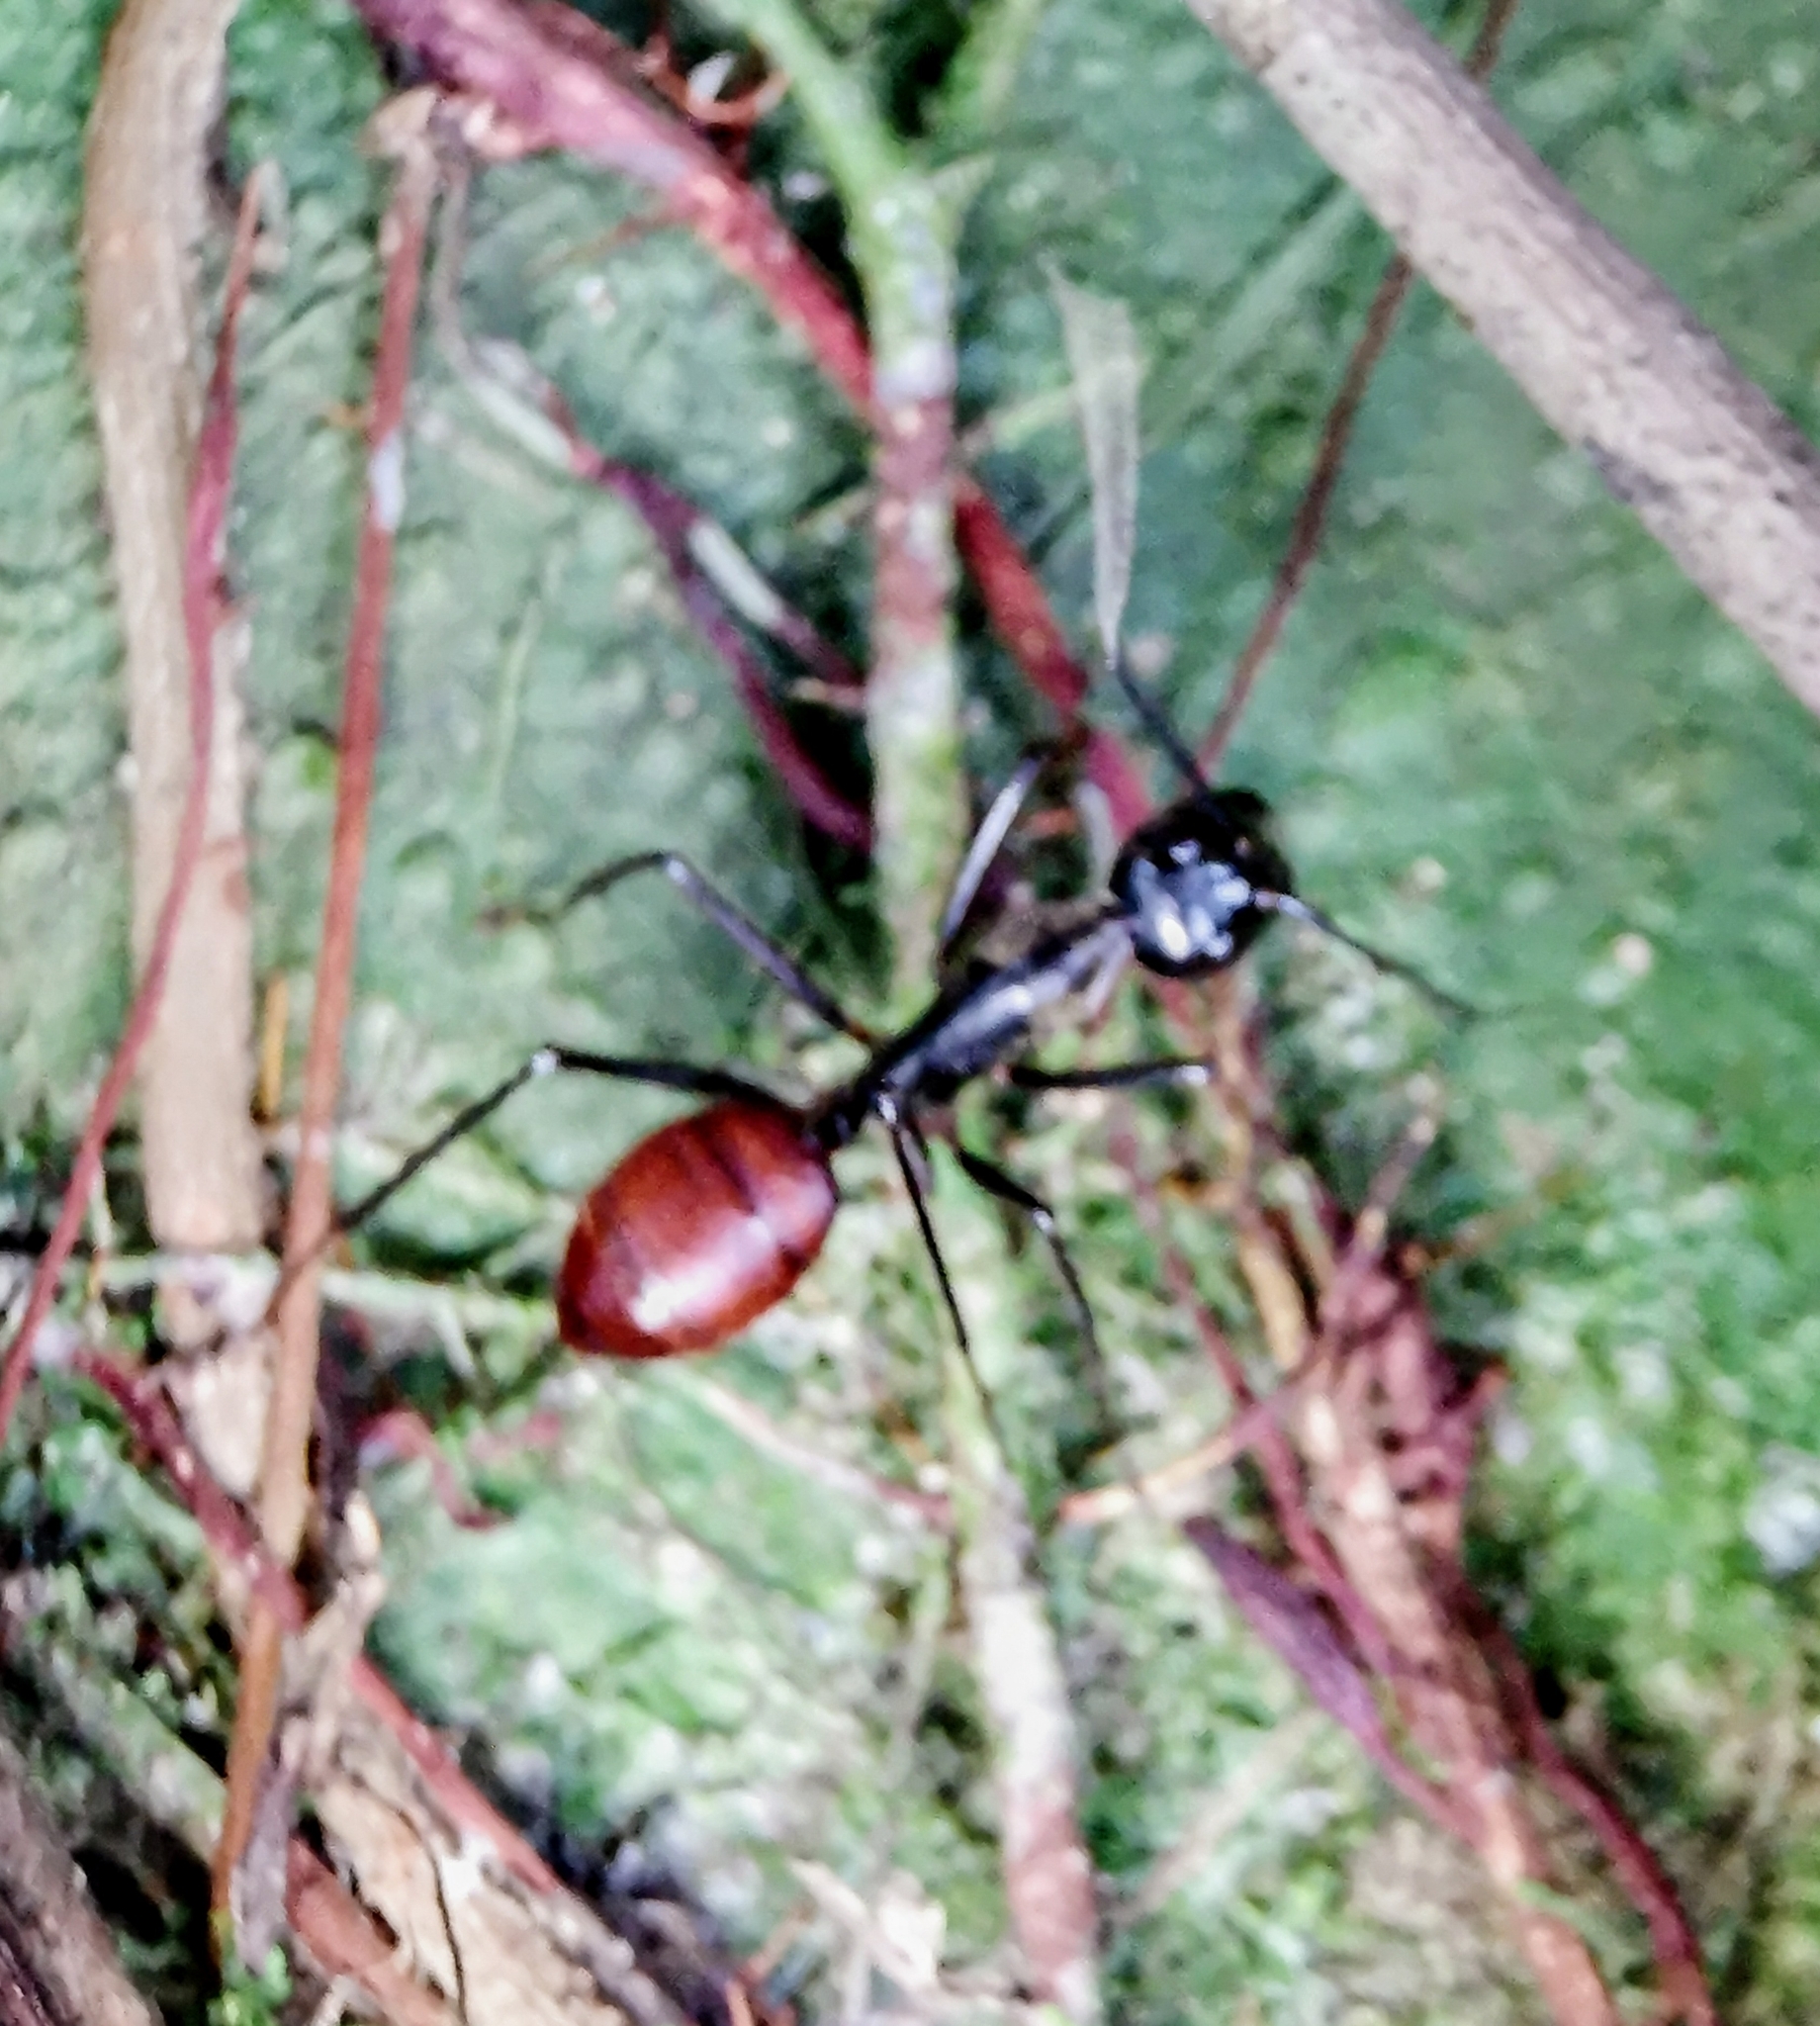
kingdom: Animalia
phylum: Arthropoda
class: Insecta
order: Hymenoptera
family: Formicidae
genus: Dinomyrmex
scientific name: Dinomyrmex
